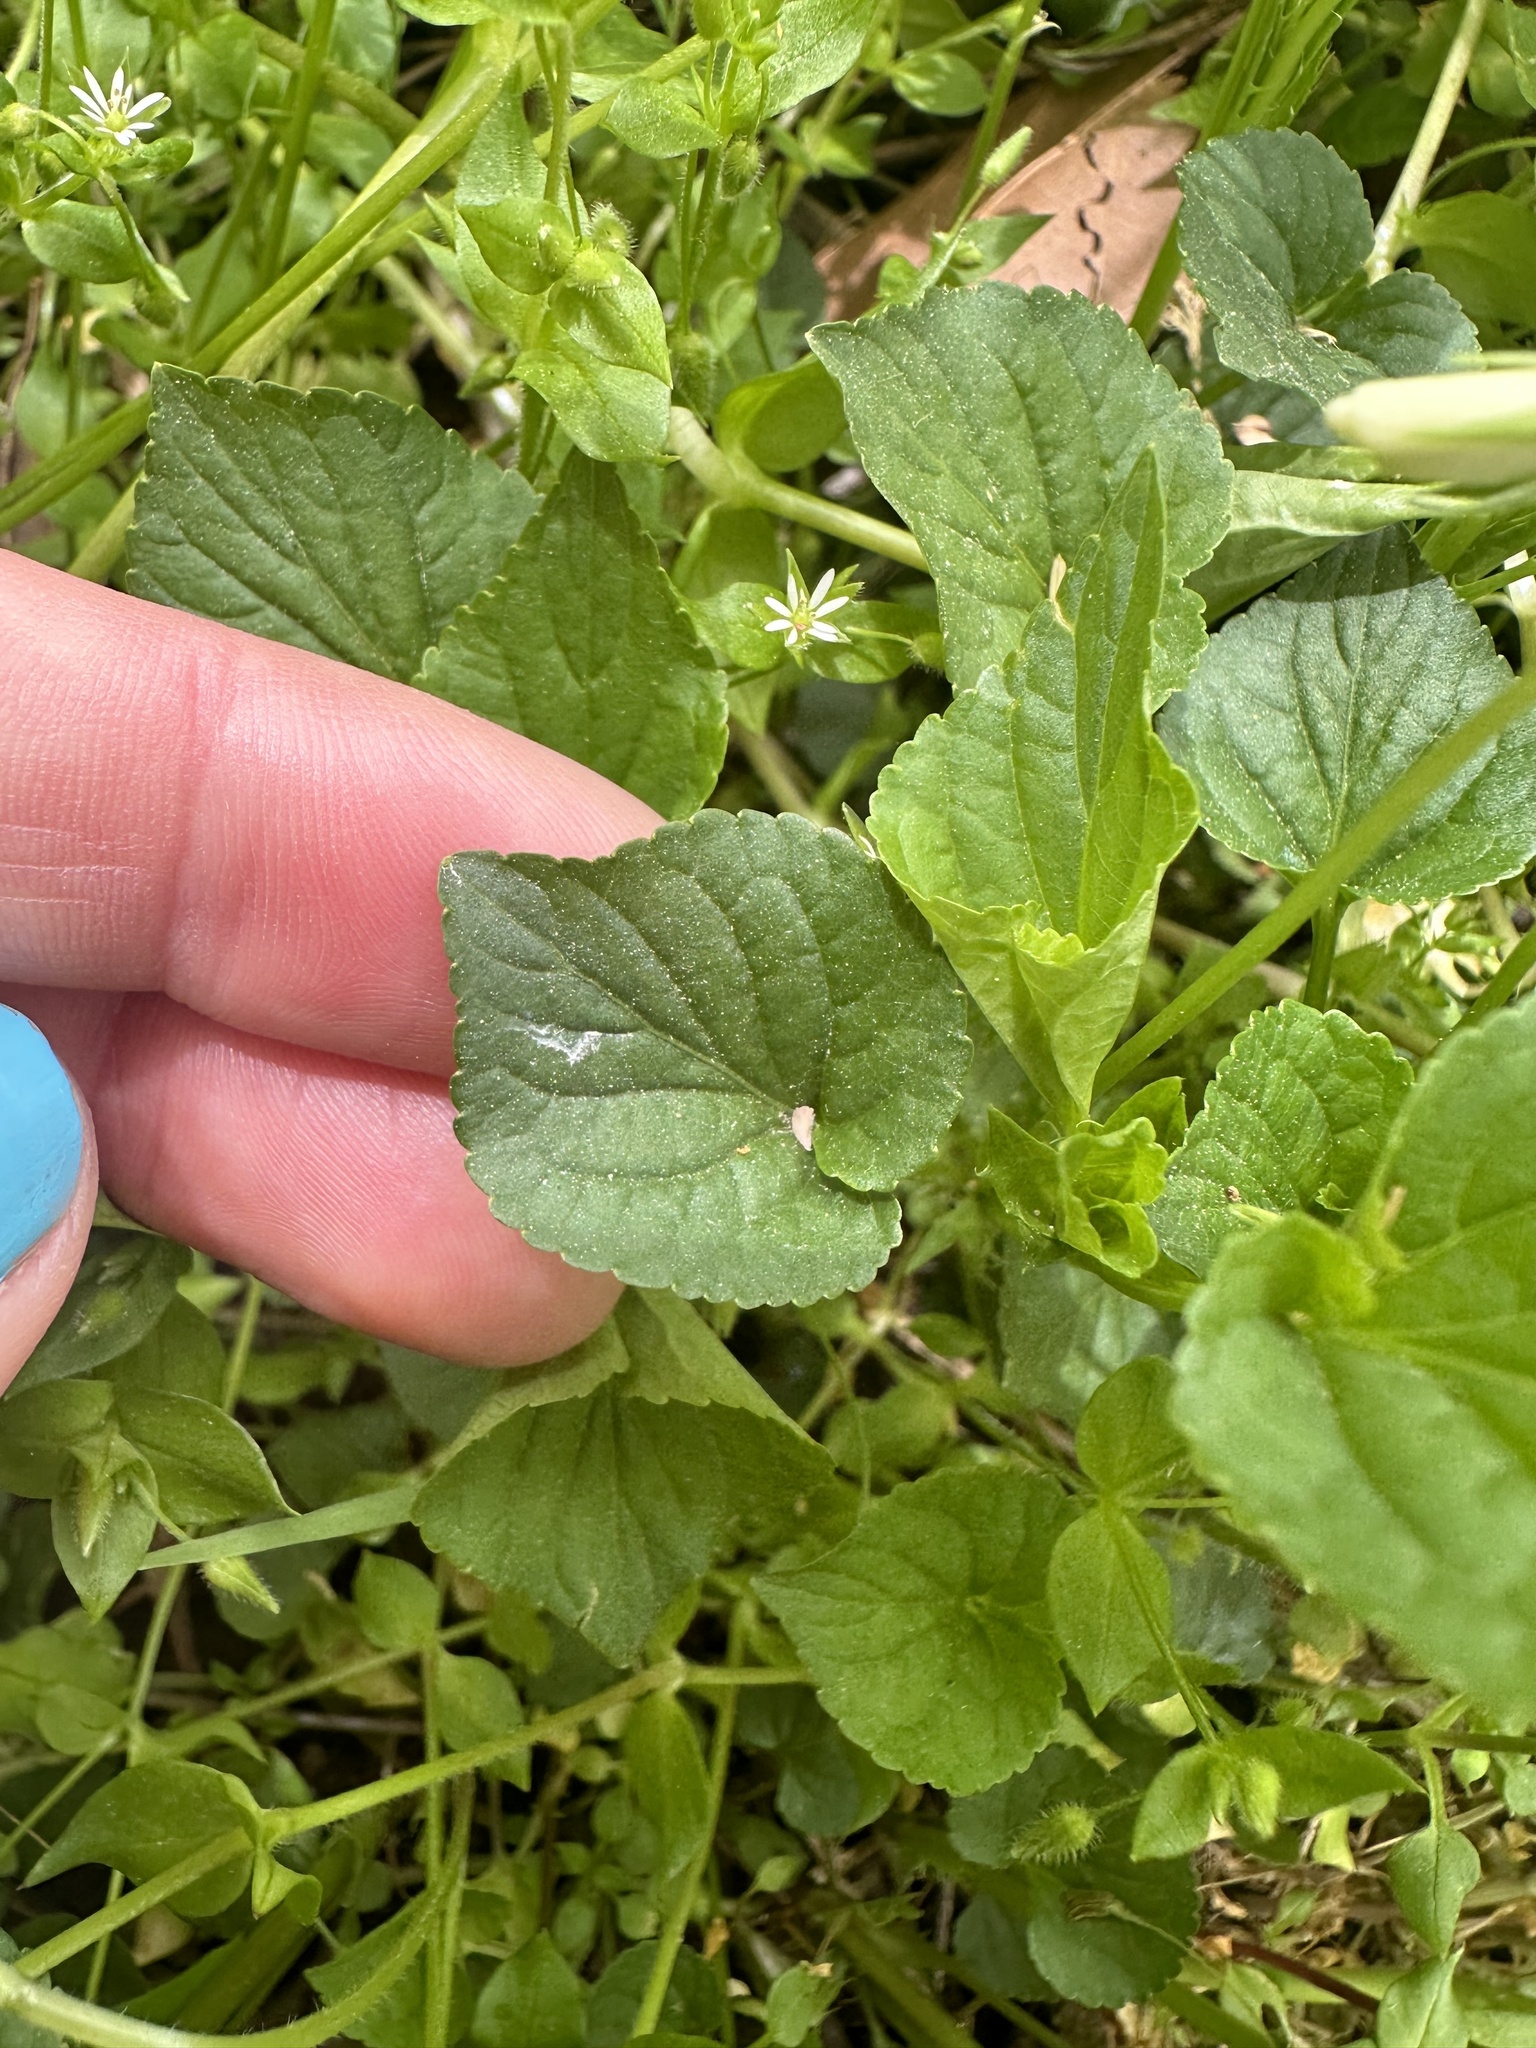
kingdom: Plantae
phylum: Tracheophyta
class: Magnoliopsida
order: Malpighiales
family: Violaceae
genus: Viola
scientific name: Viola striata
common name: Cream violet
